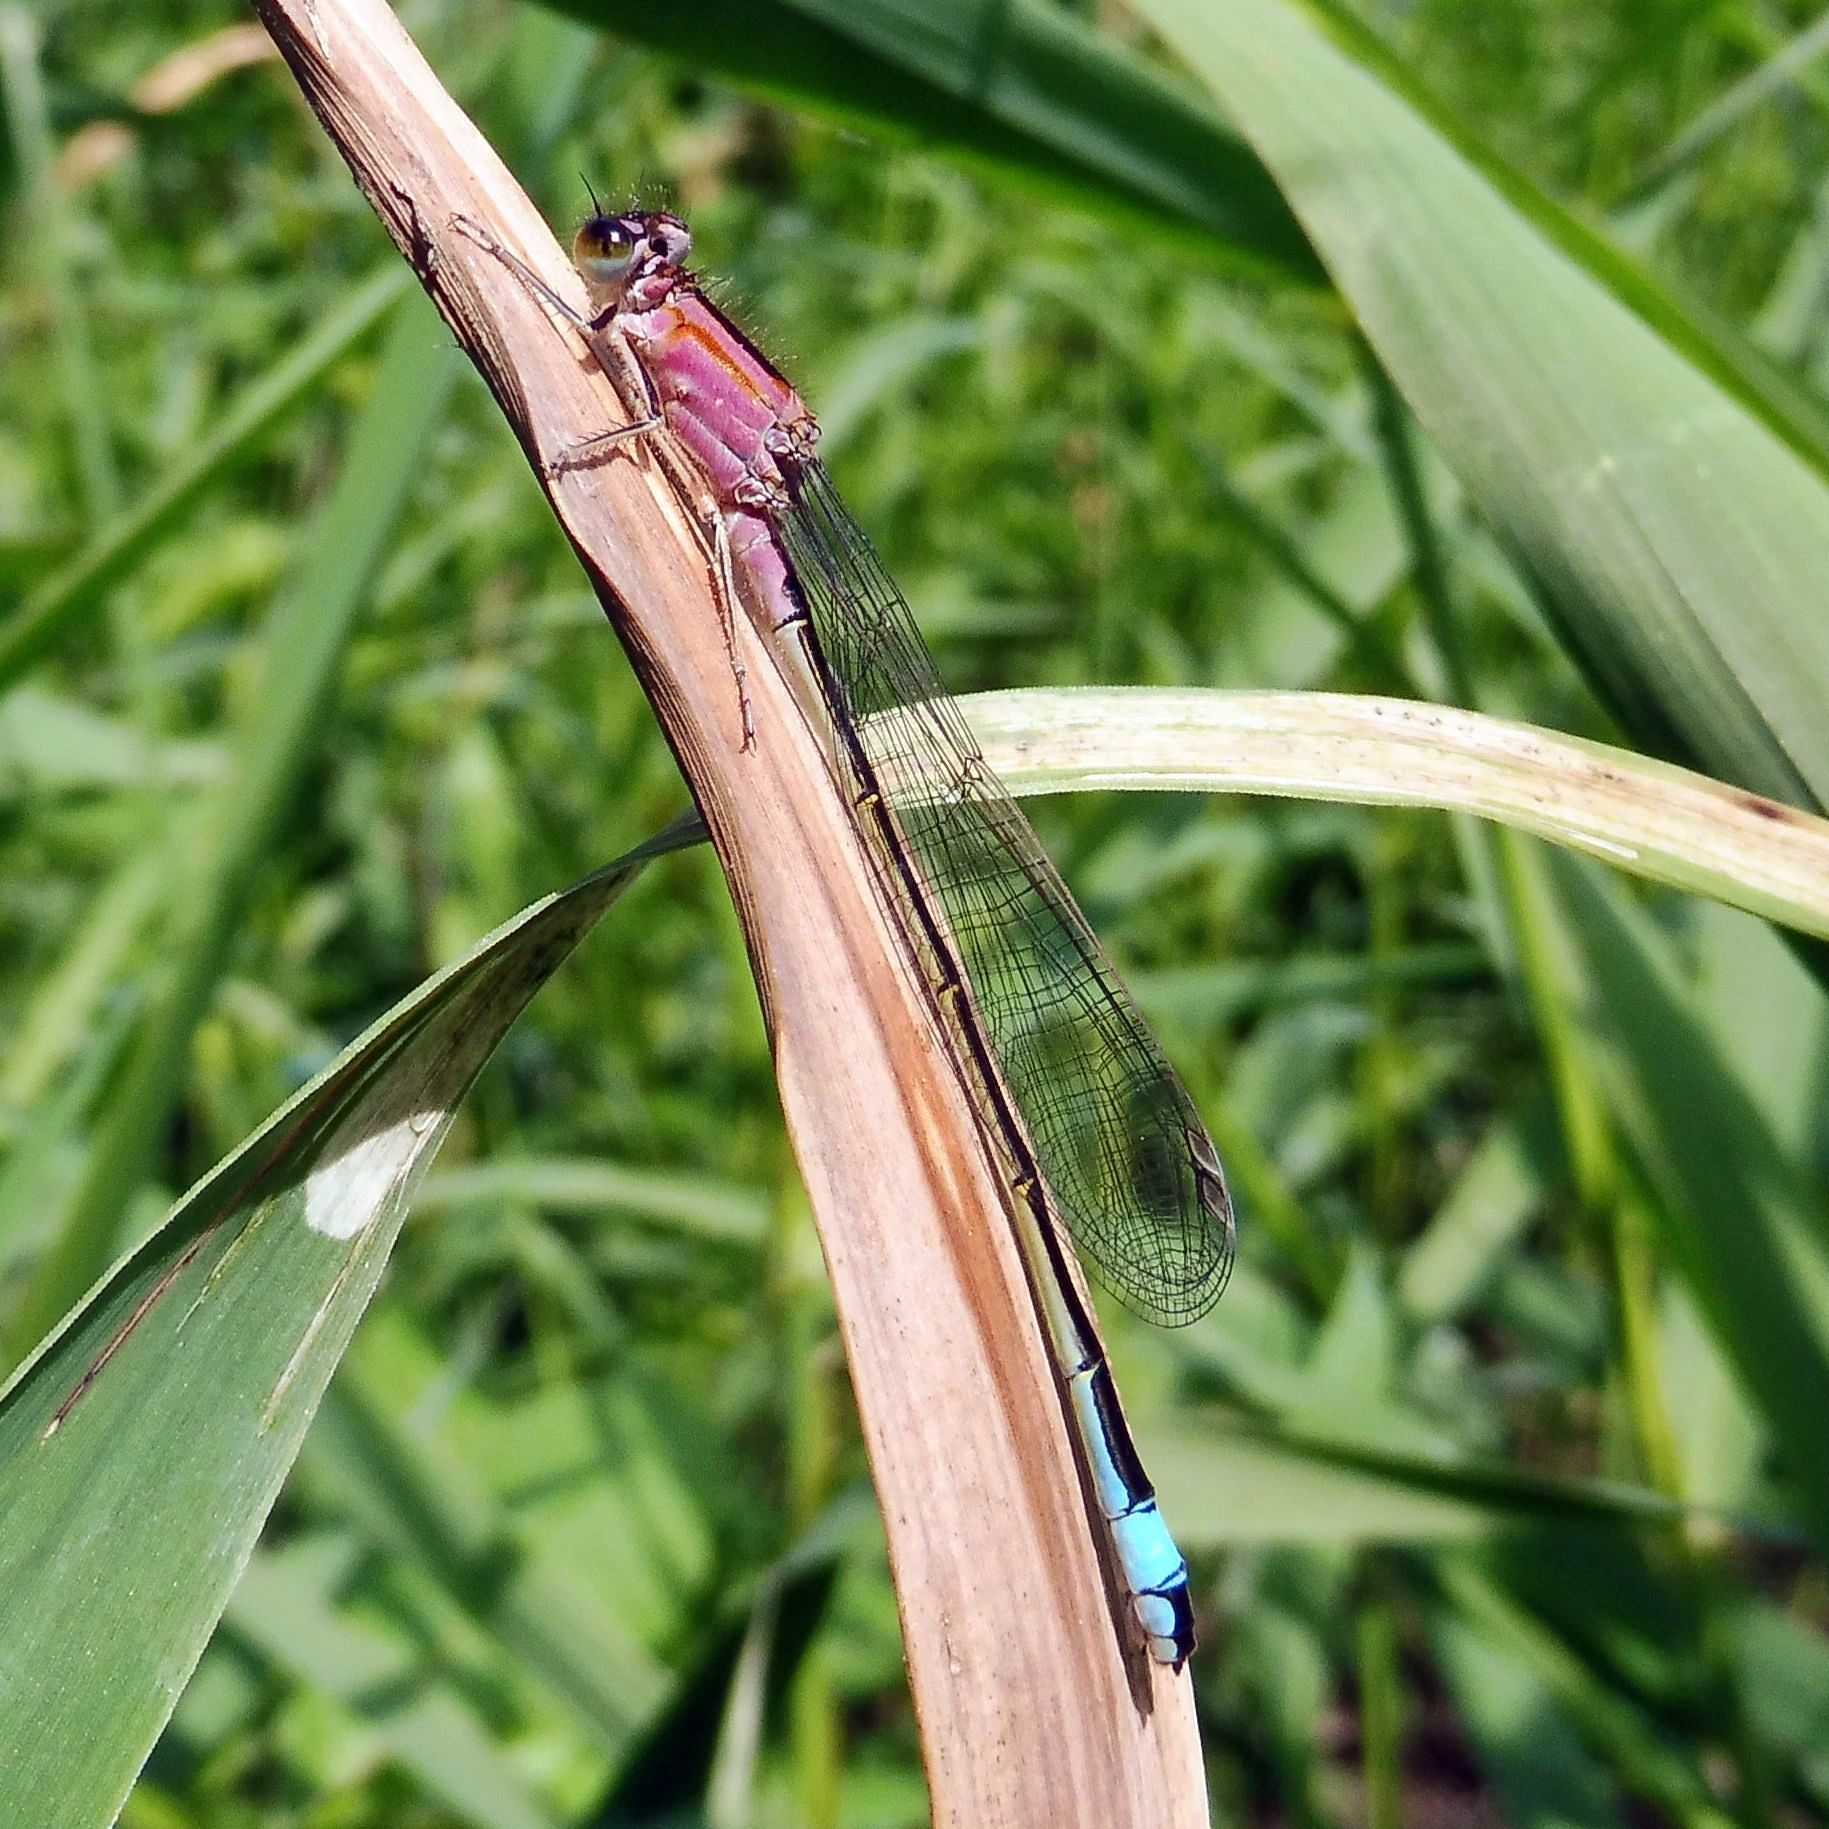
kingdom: Animalia
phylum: Arthropoda
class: Insecta
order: Odonata
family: Coenagrionidae
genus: Ischnura
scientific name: Ischnura elegans
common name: Blue-tailed damselfly
